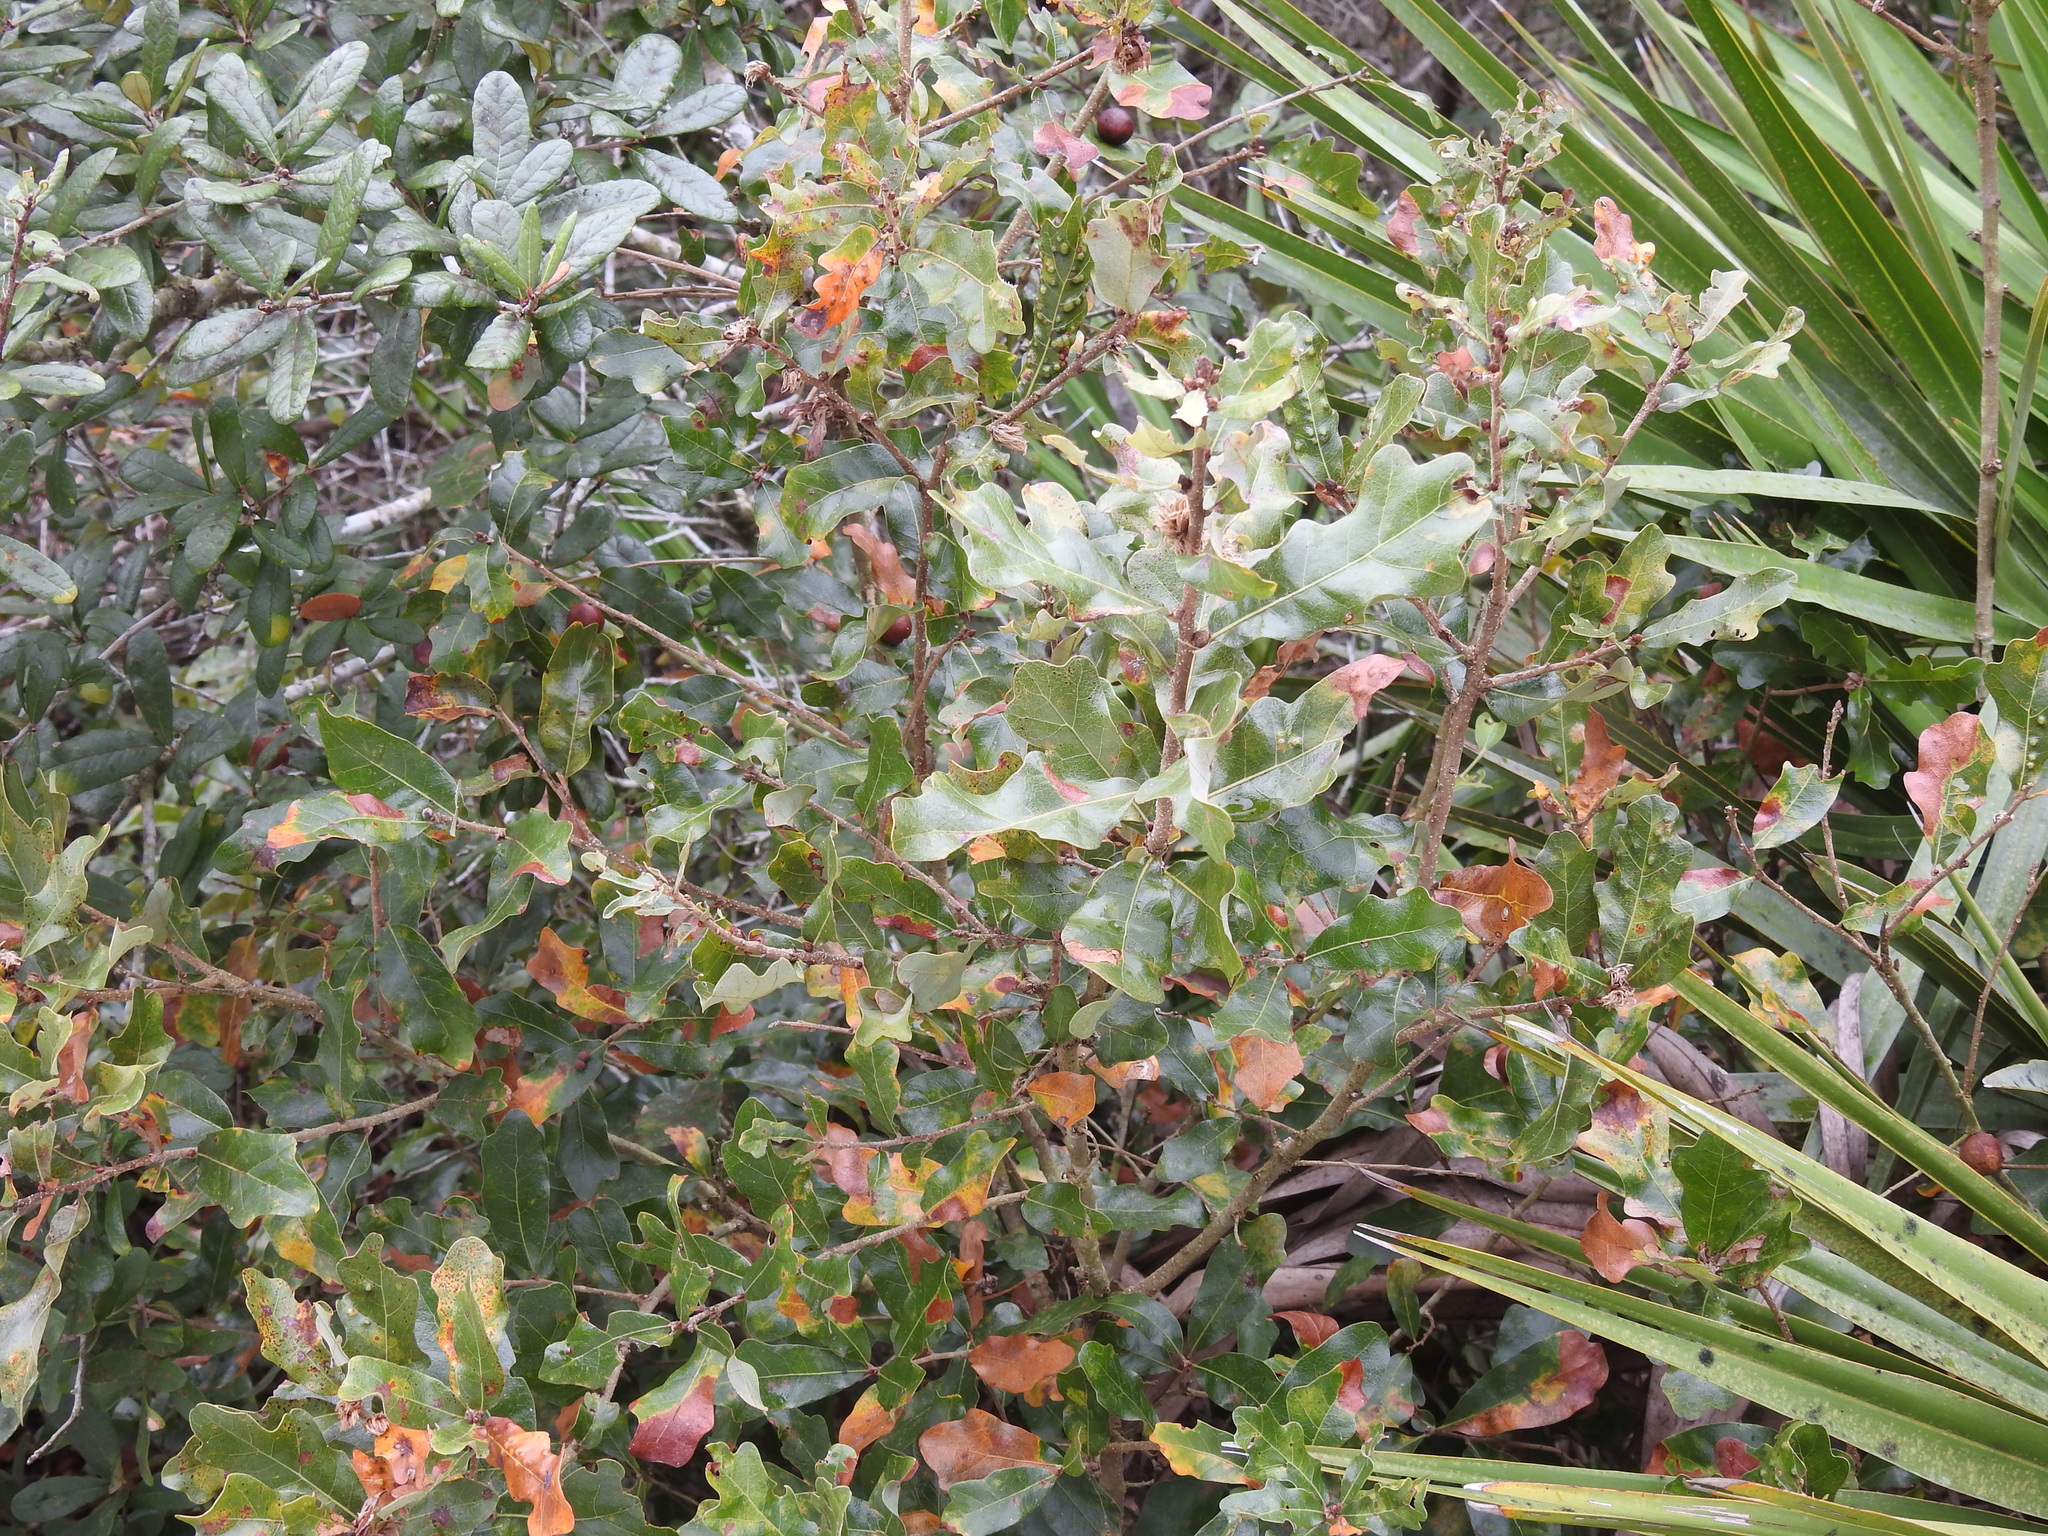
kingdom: Plantae
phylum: Tracheophyta
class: Magnoliopsida
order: Fagales
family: Fagaceae
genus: Quercus
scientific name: Quercus chapmanii
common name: Chapman oak
